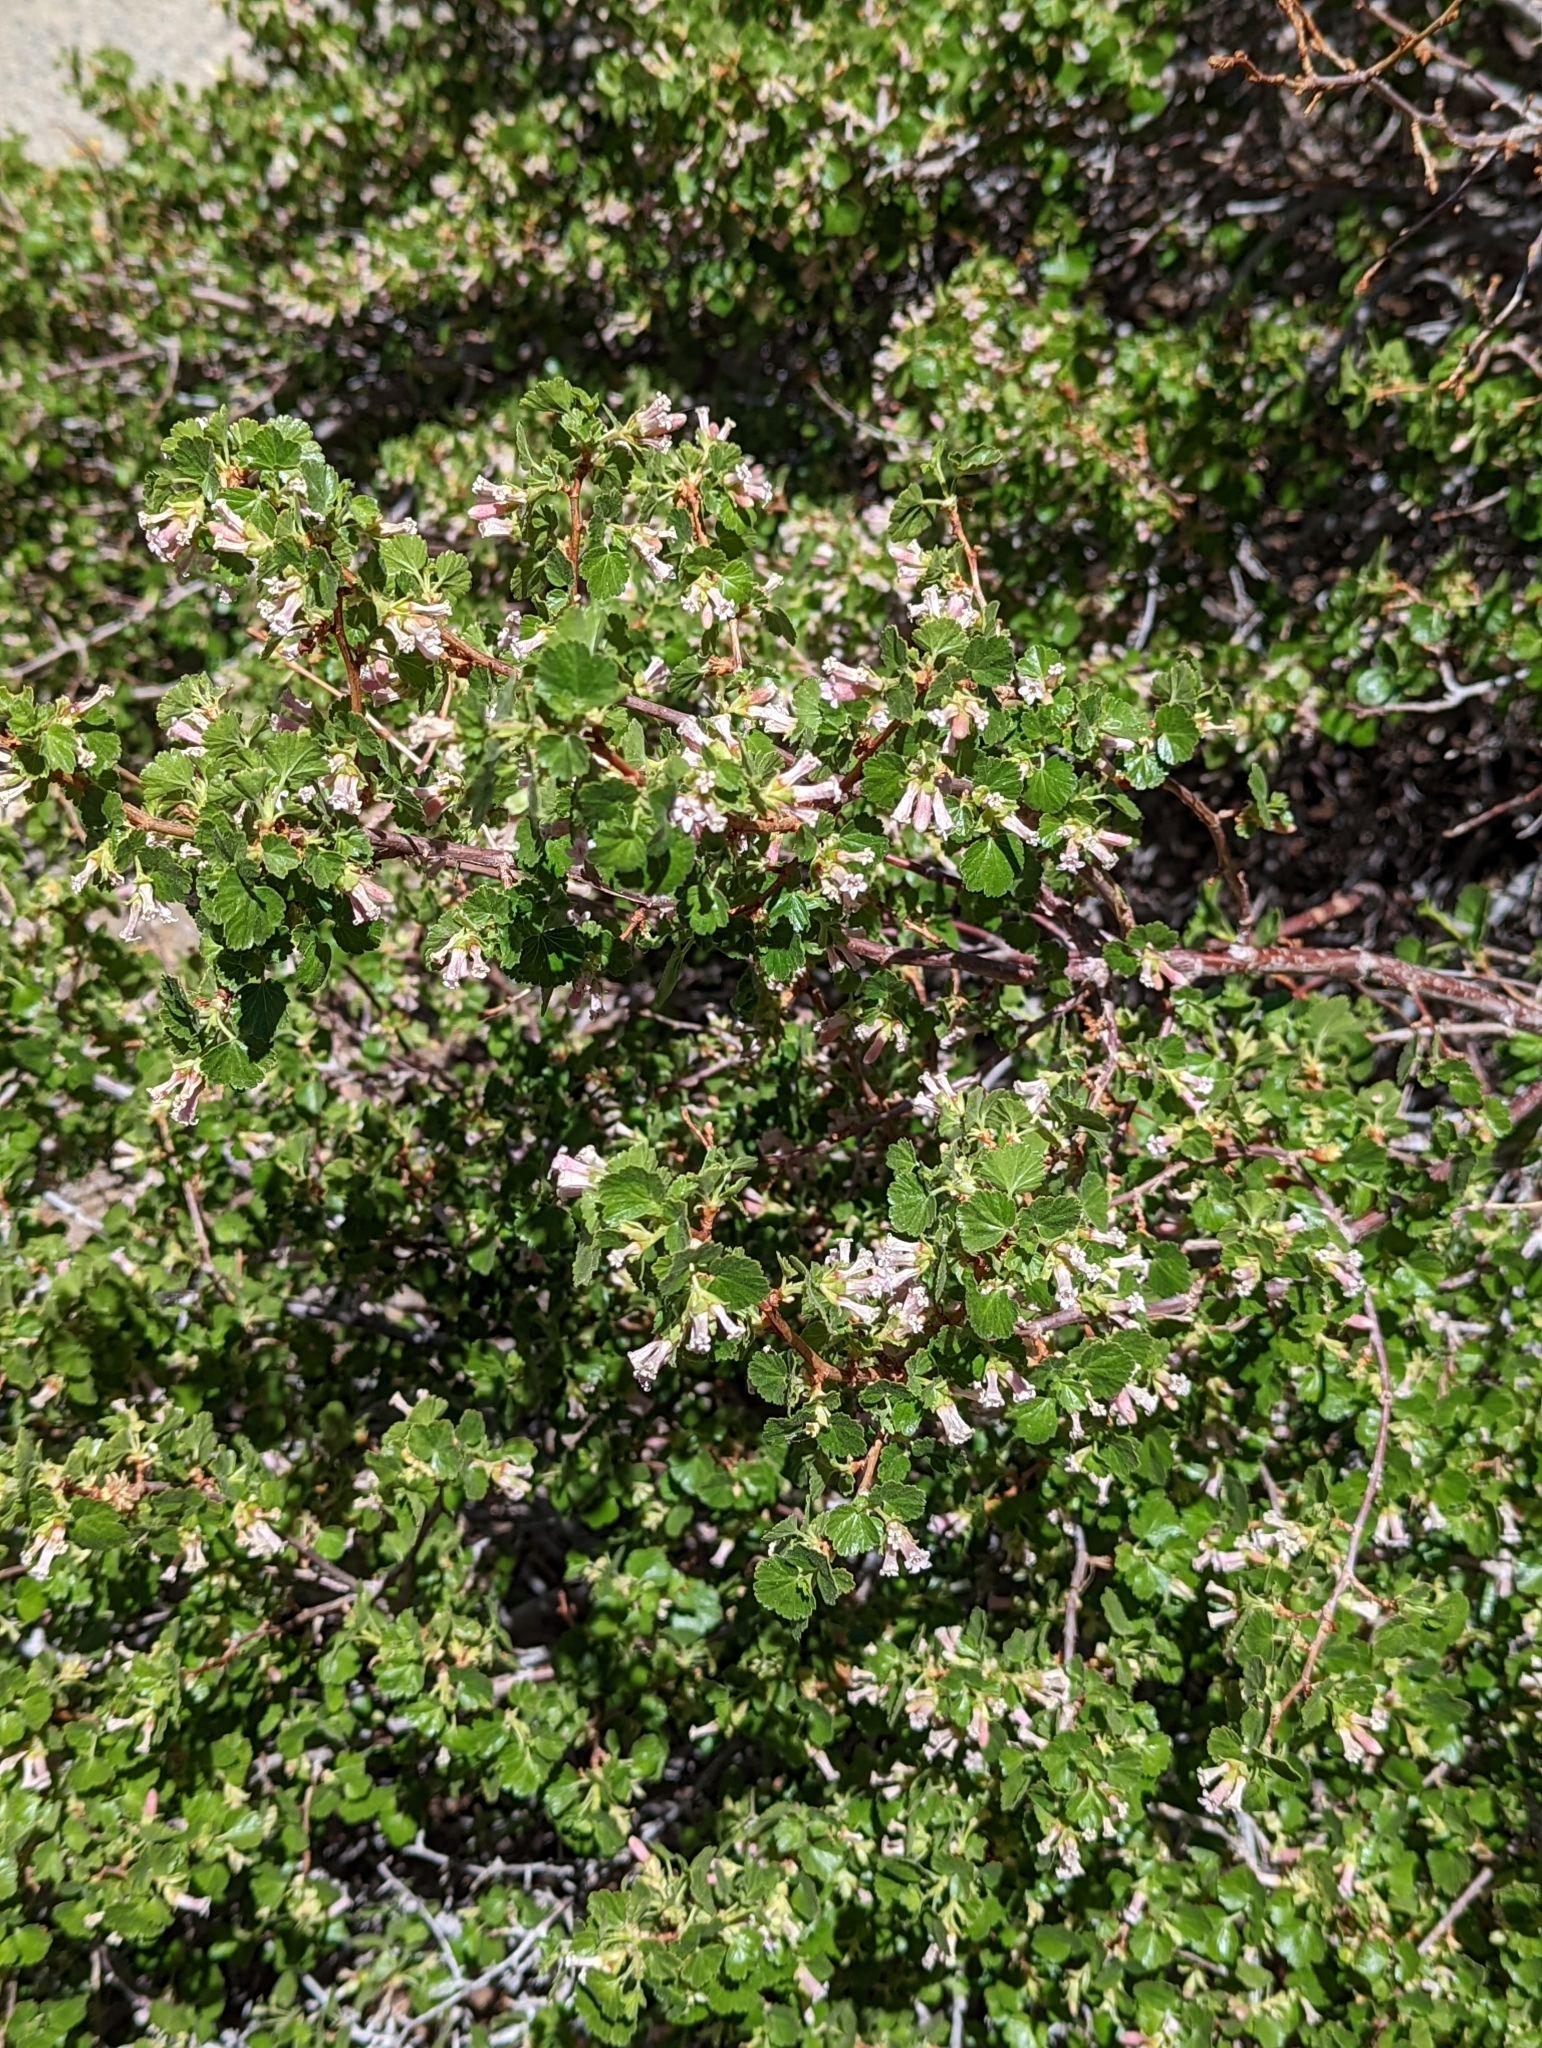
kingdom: Plantae
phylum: Tracheophyta
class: Magnoliopsida
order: Saxifragales
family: Grossulariaceae
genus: Ribes
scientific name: Ribes cereum
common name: Wax currant
